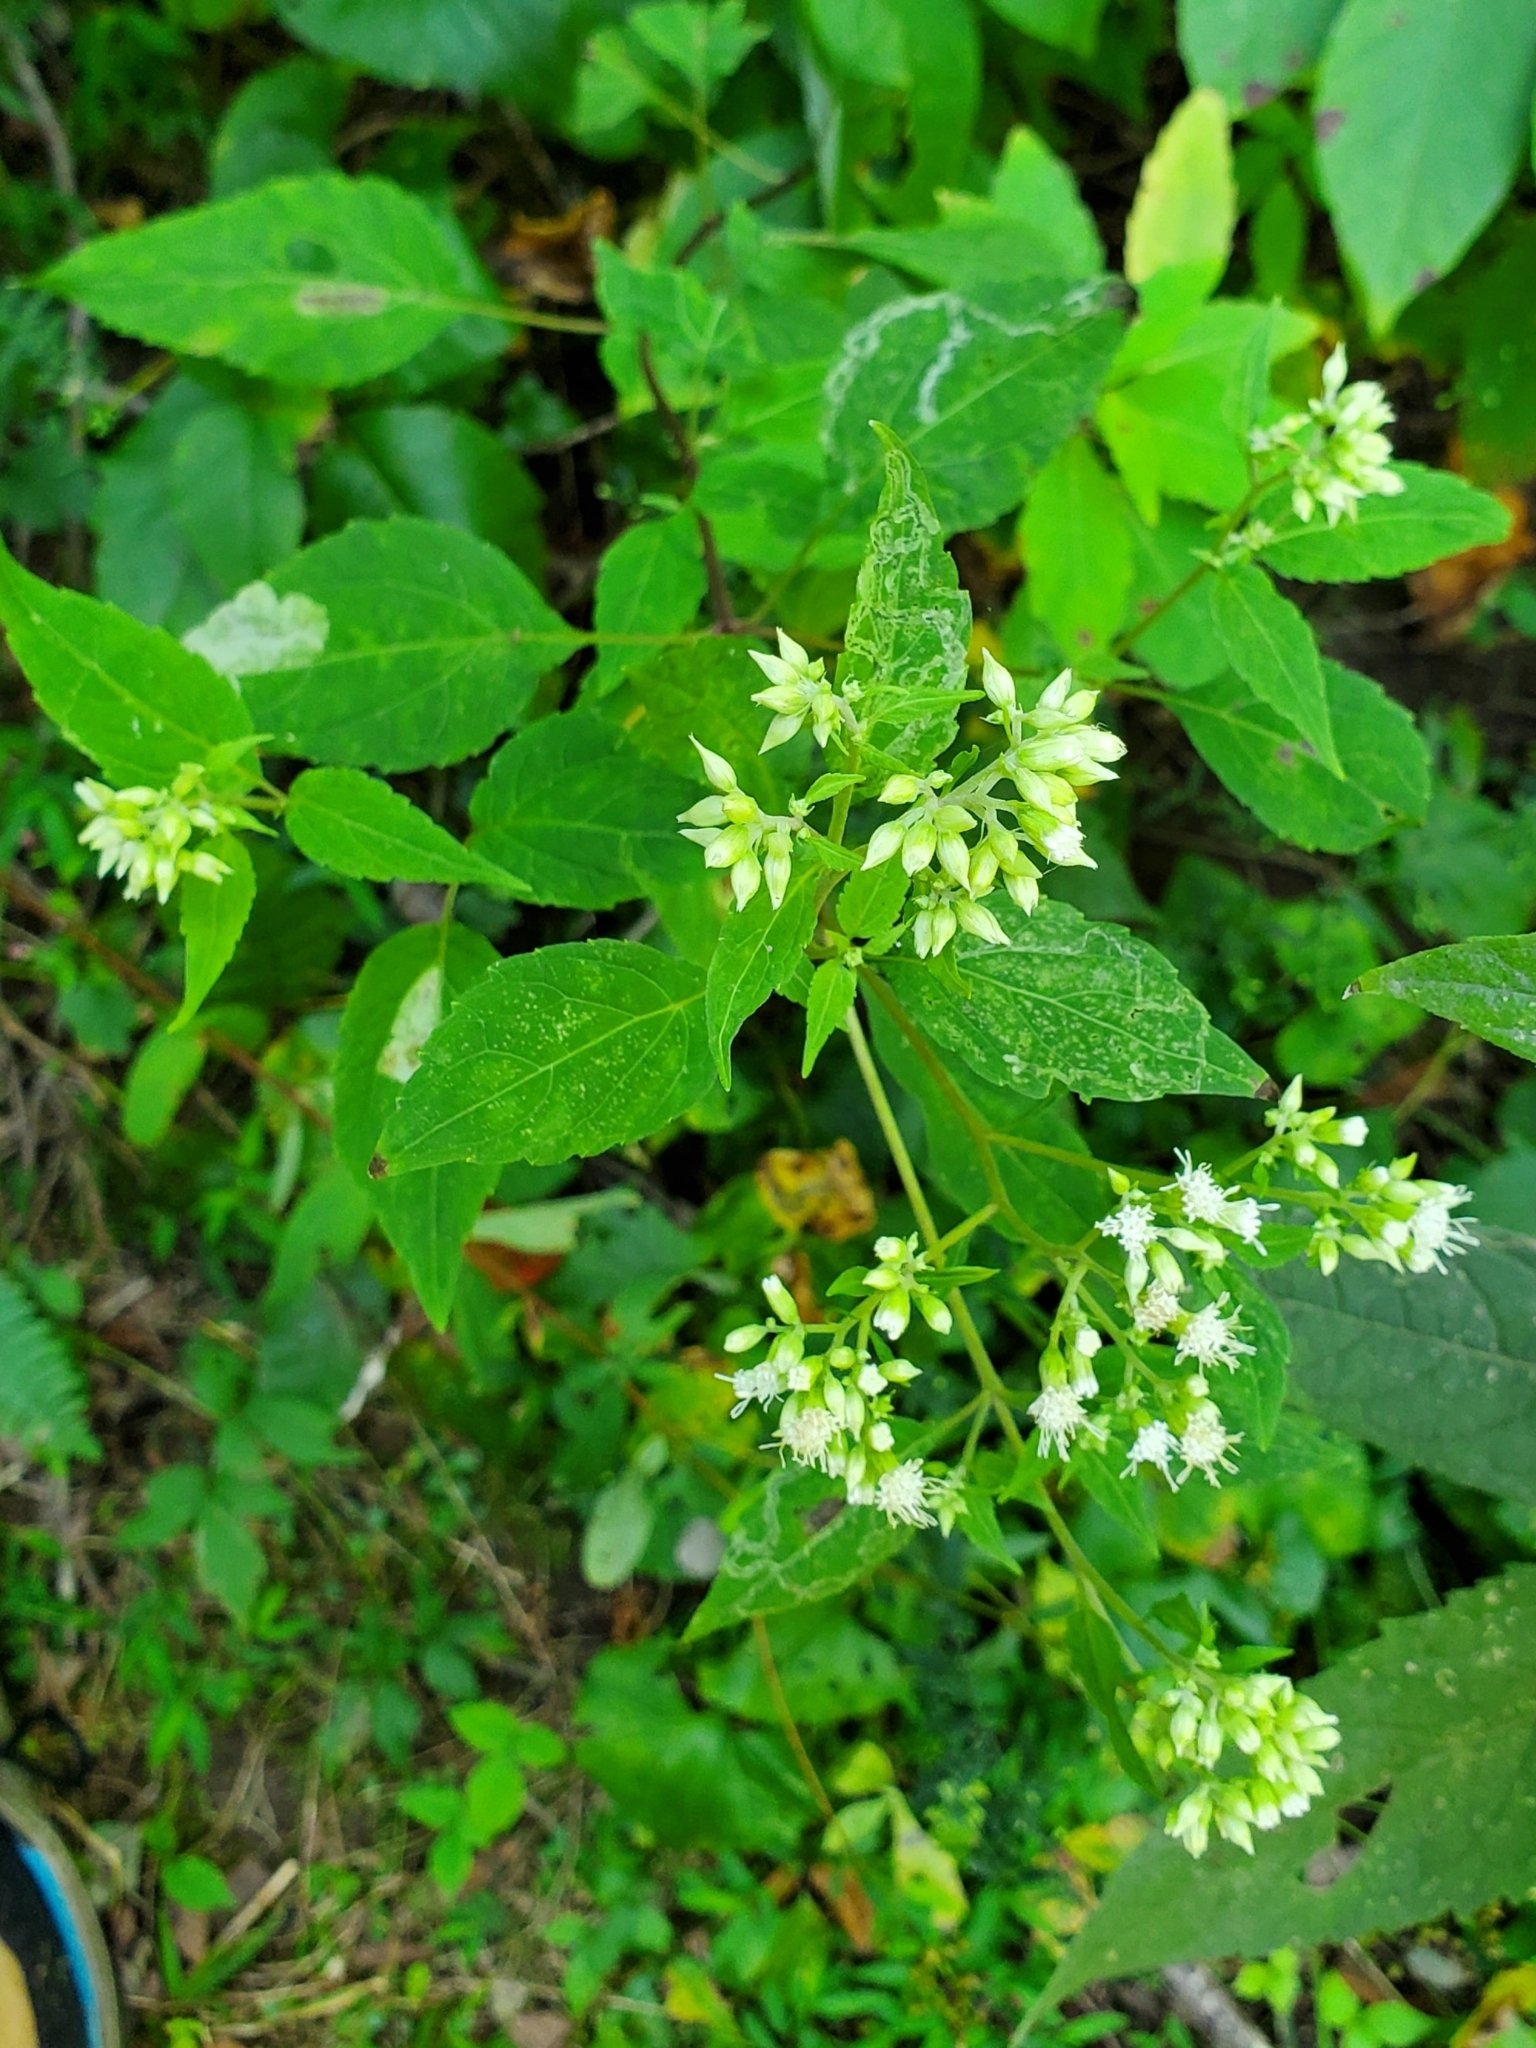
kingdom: Plantae
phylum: Tracheophyta
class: Magnoliopsida
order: Asterales
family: Asteraceae
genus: Ageratina
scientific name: Ageratina altissima
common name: White snakeroot
